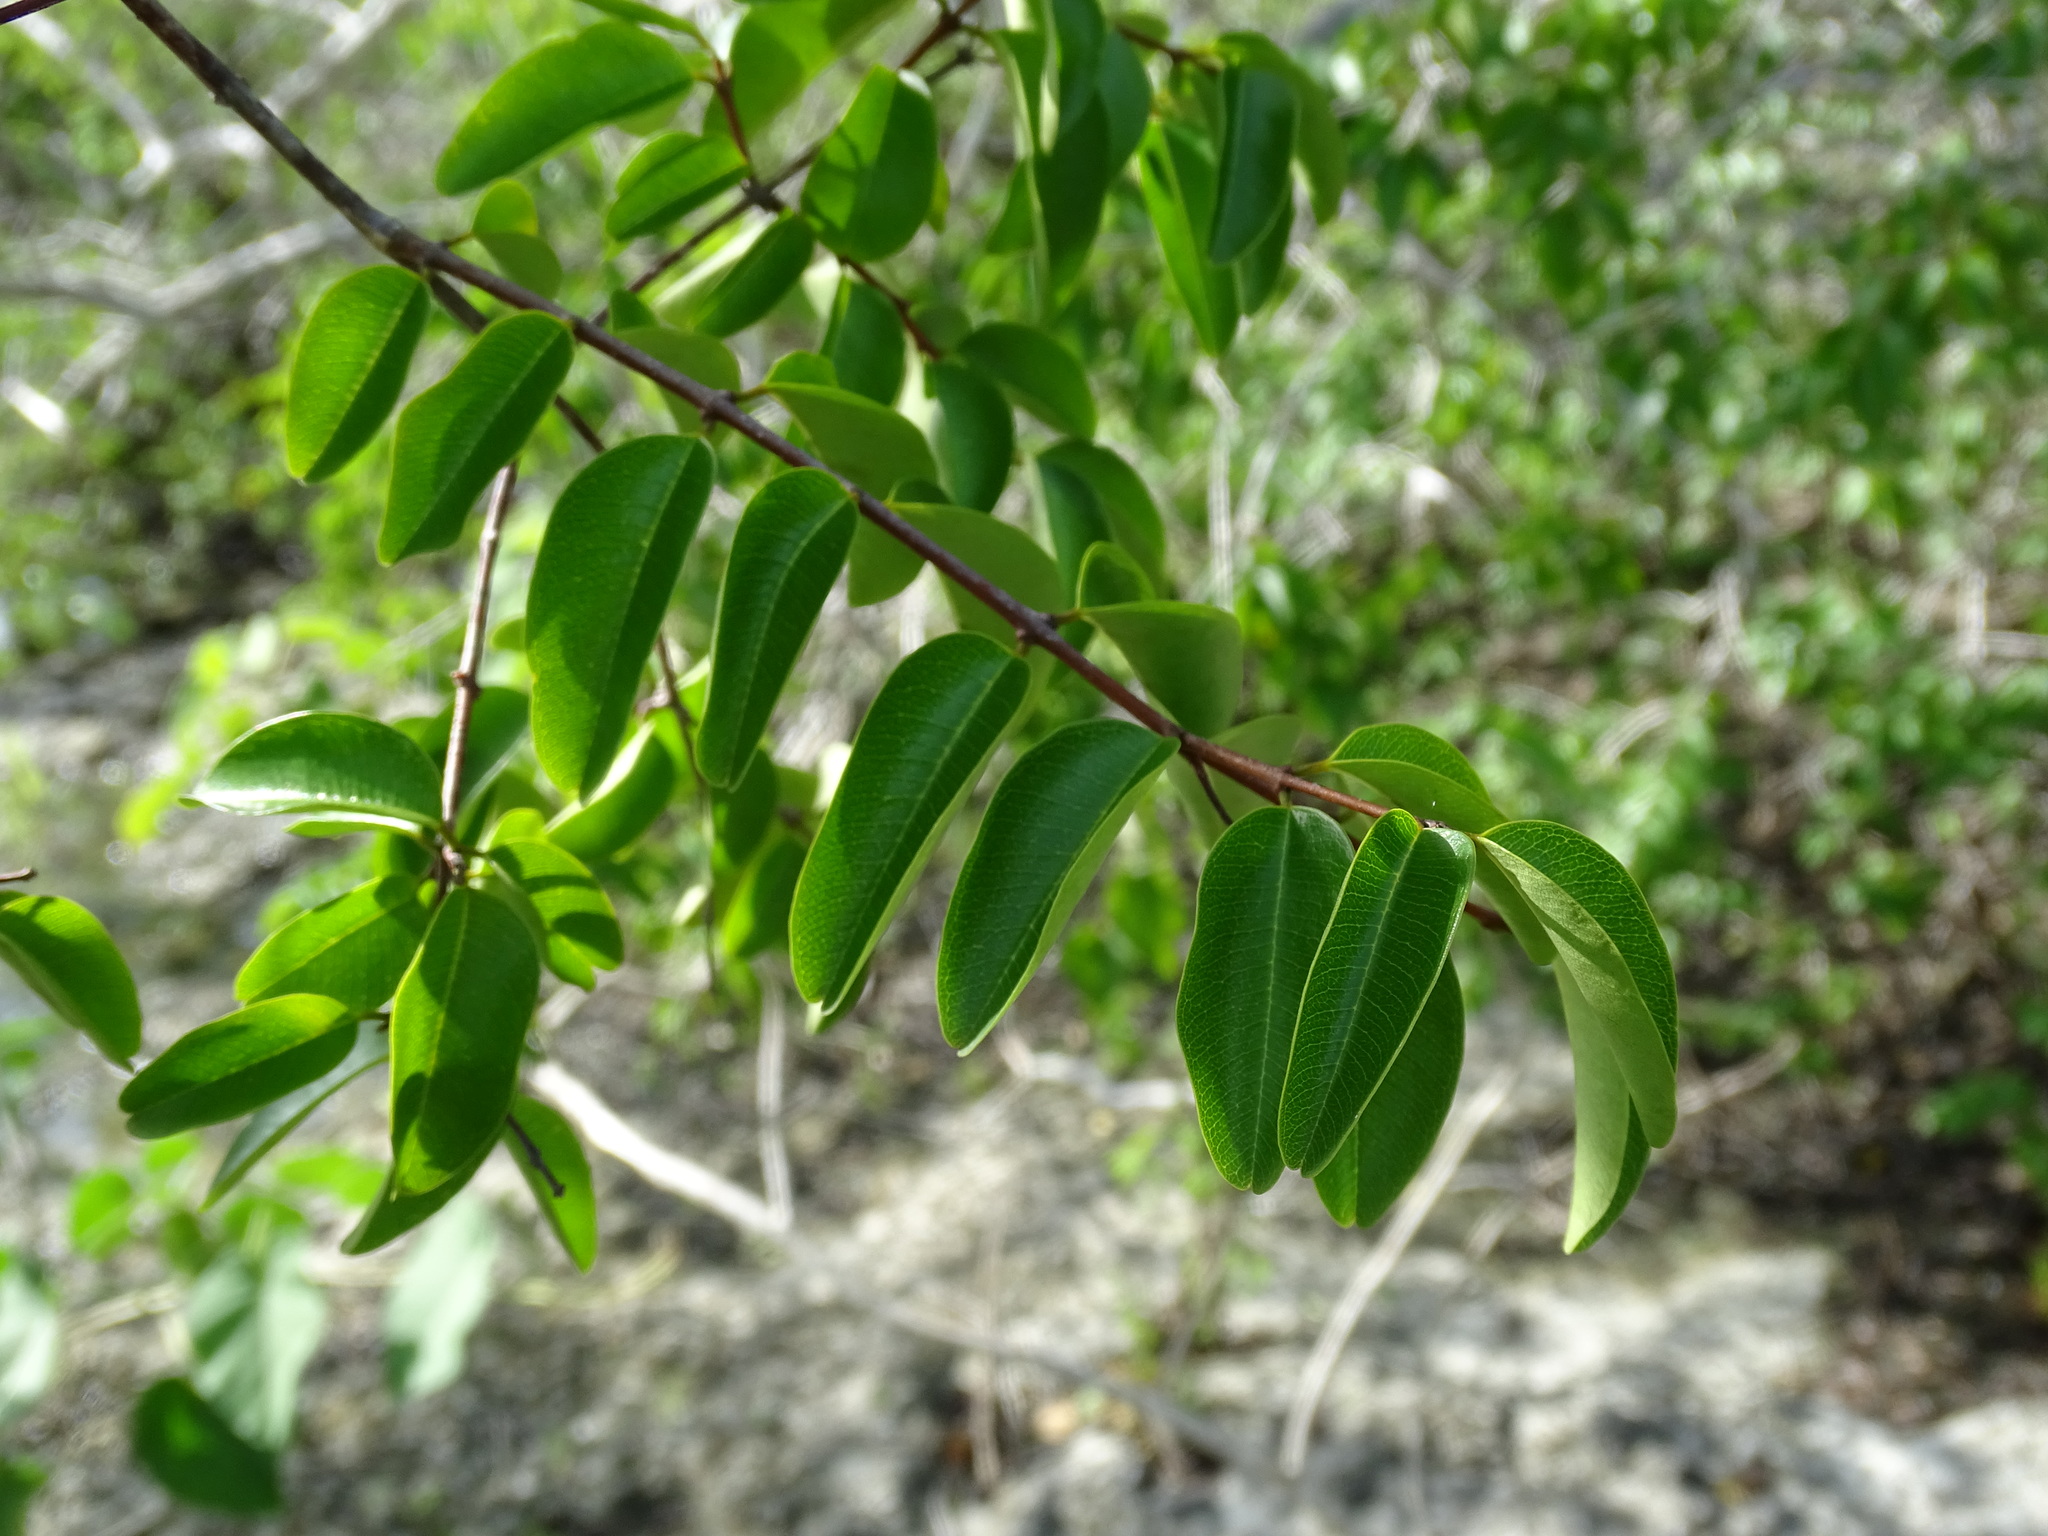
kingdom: Plantae
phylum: Tracheophyta
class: Magnoliopsida
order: Gentianales
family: Apocynaceae
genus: Cameraria
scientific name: Cameraria latifolia
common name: Savanna white poisonwood
